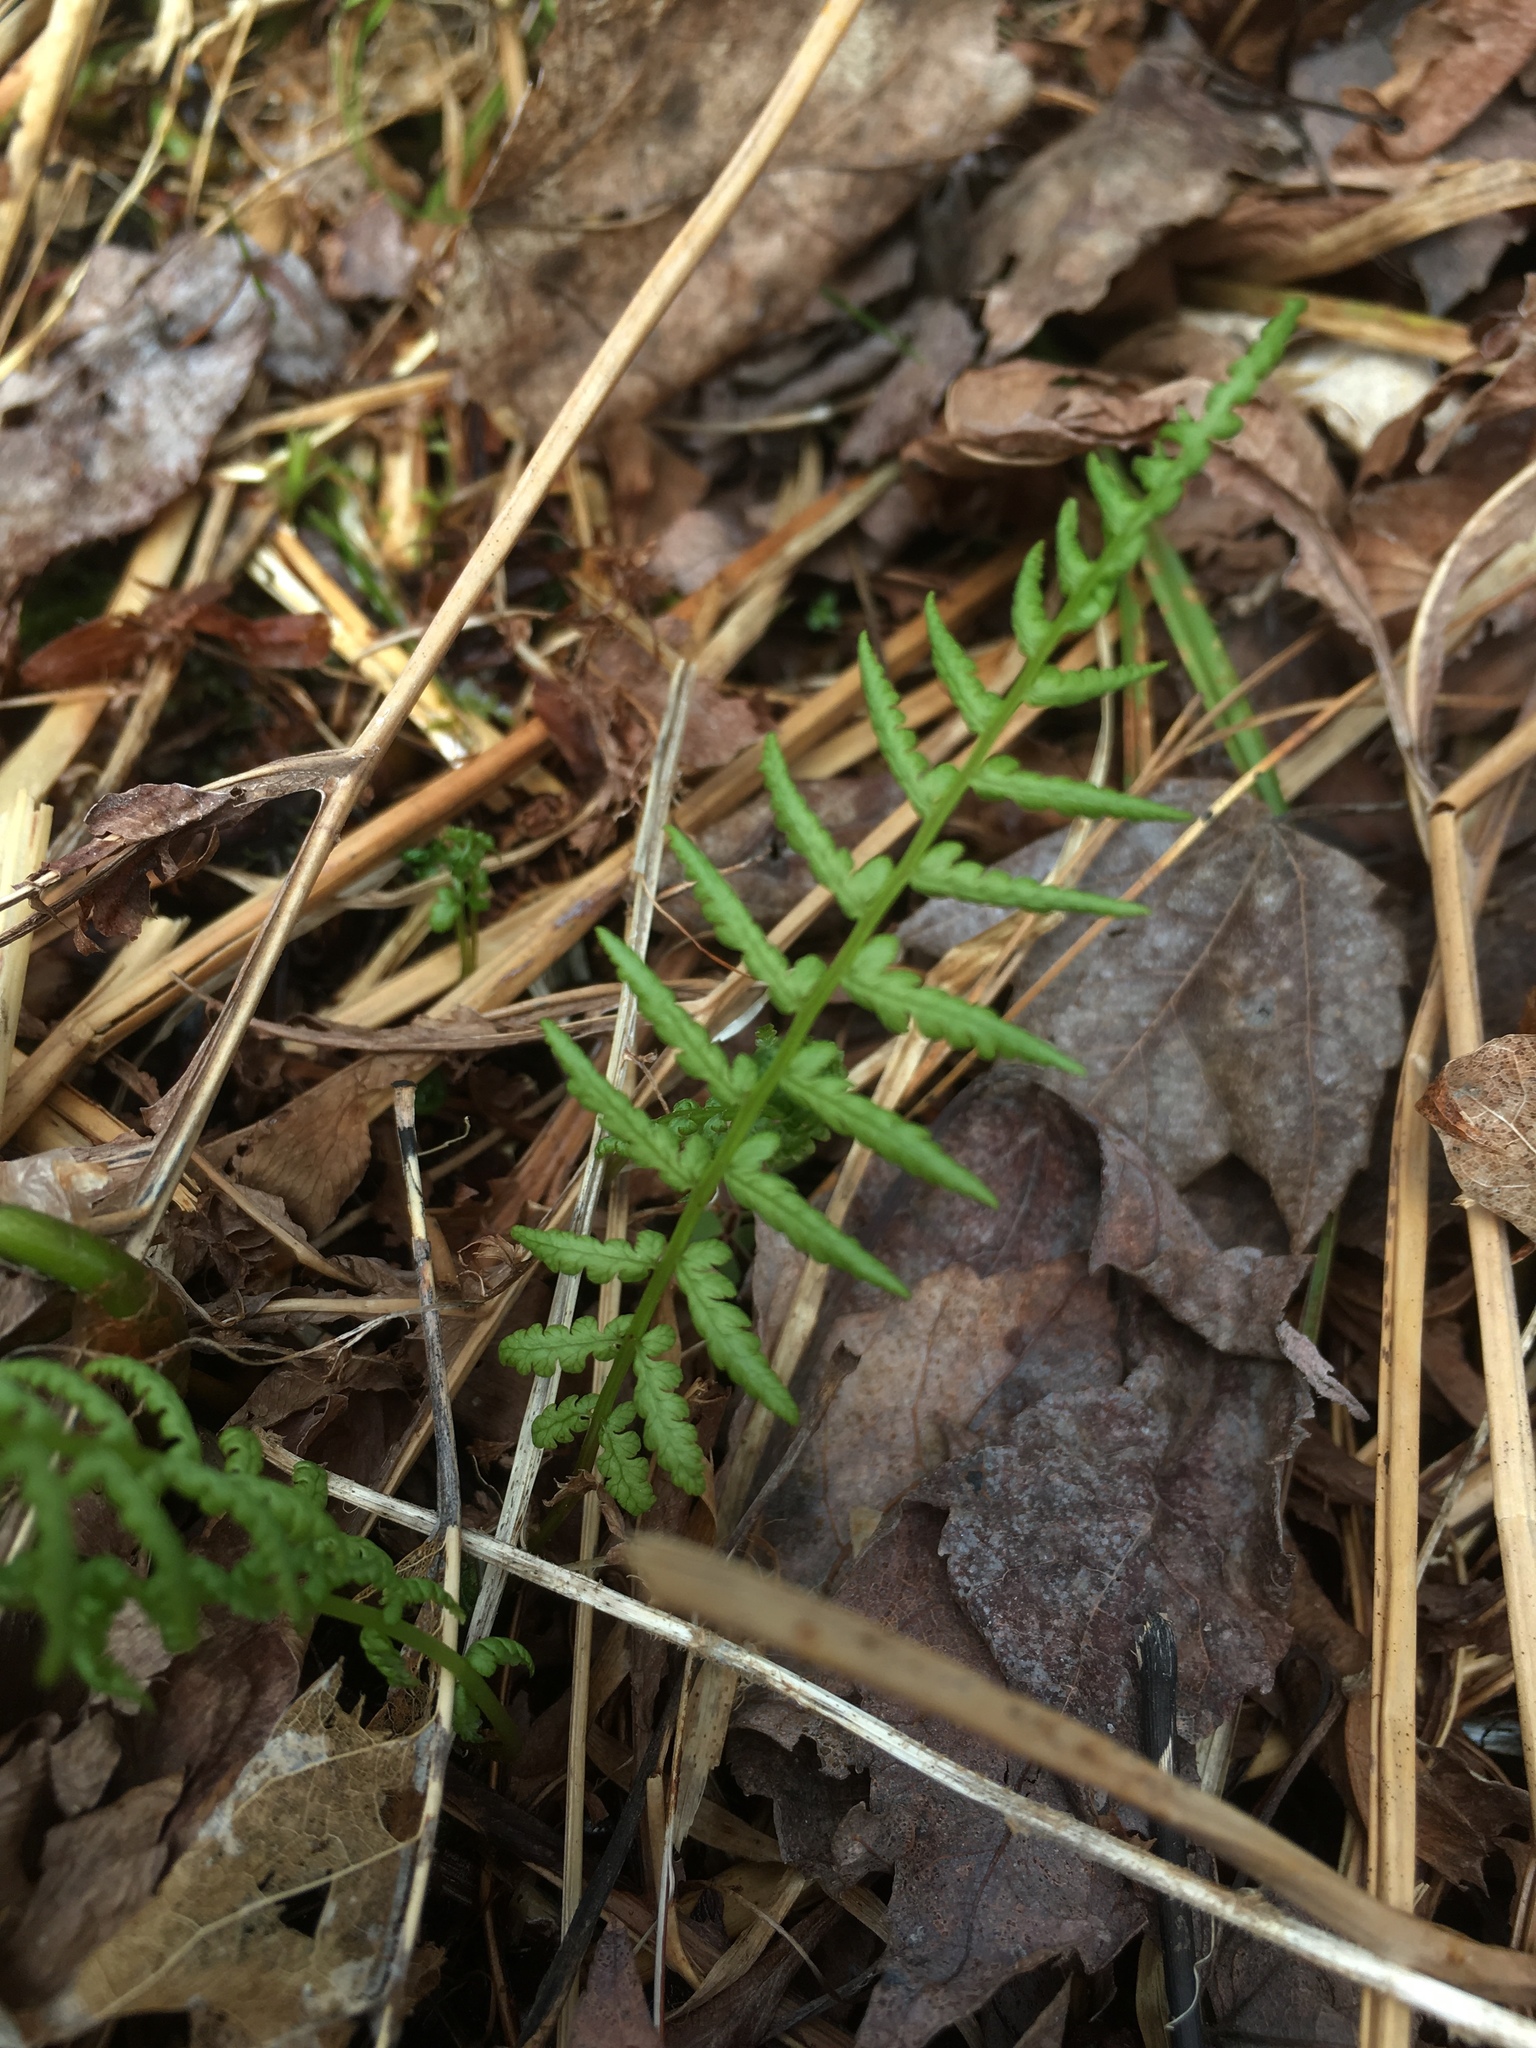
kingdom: Plantae
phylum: Tracheophyta
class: Polypodiopsida
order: Polypodiales
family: Thelypteridaceae
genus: Amauropelta
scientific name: Amauropelta noveboracensis
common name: New york fern
